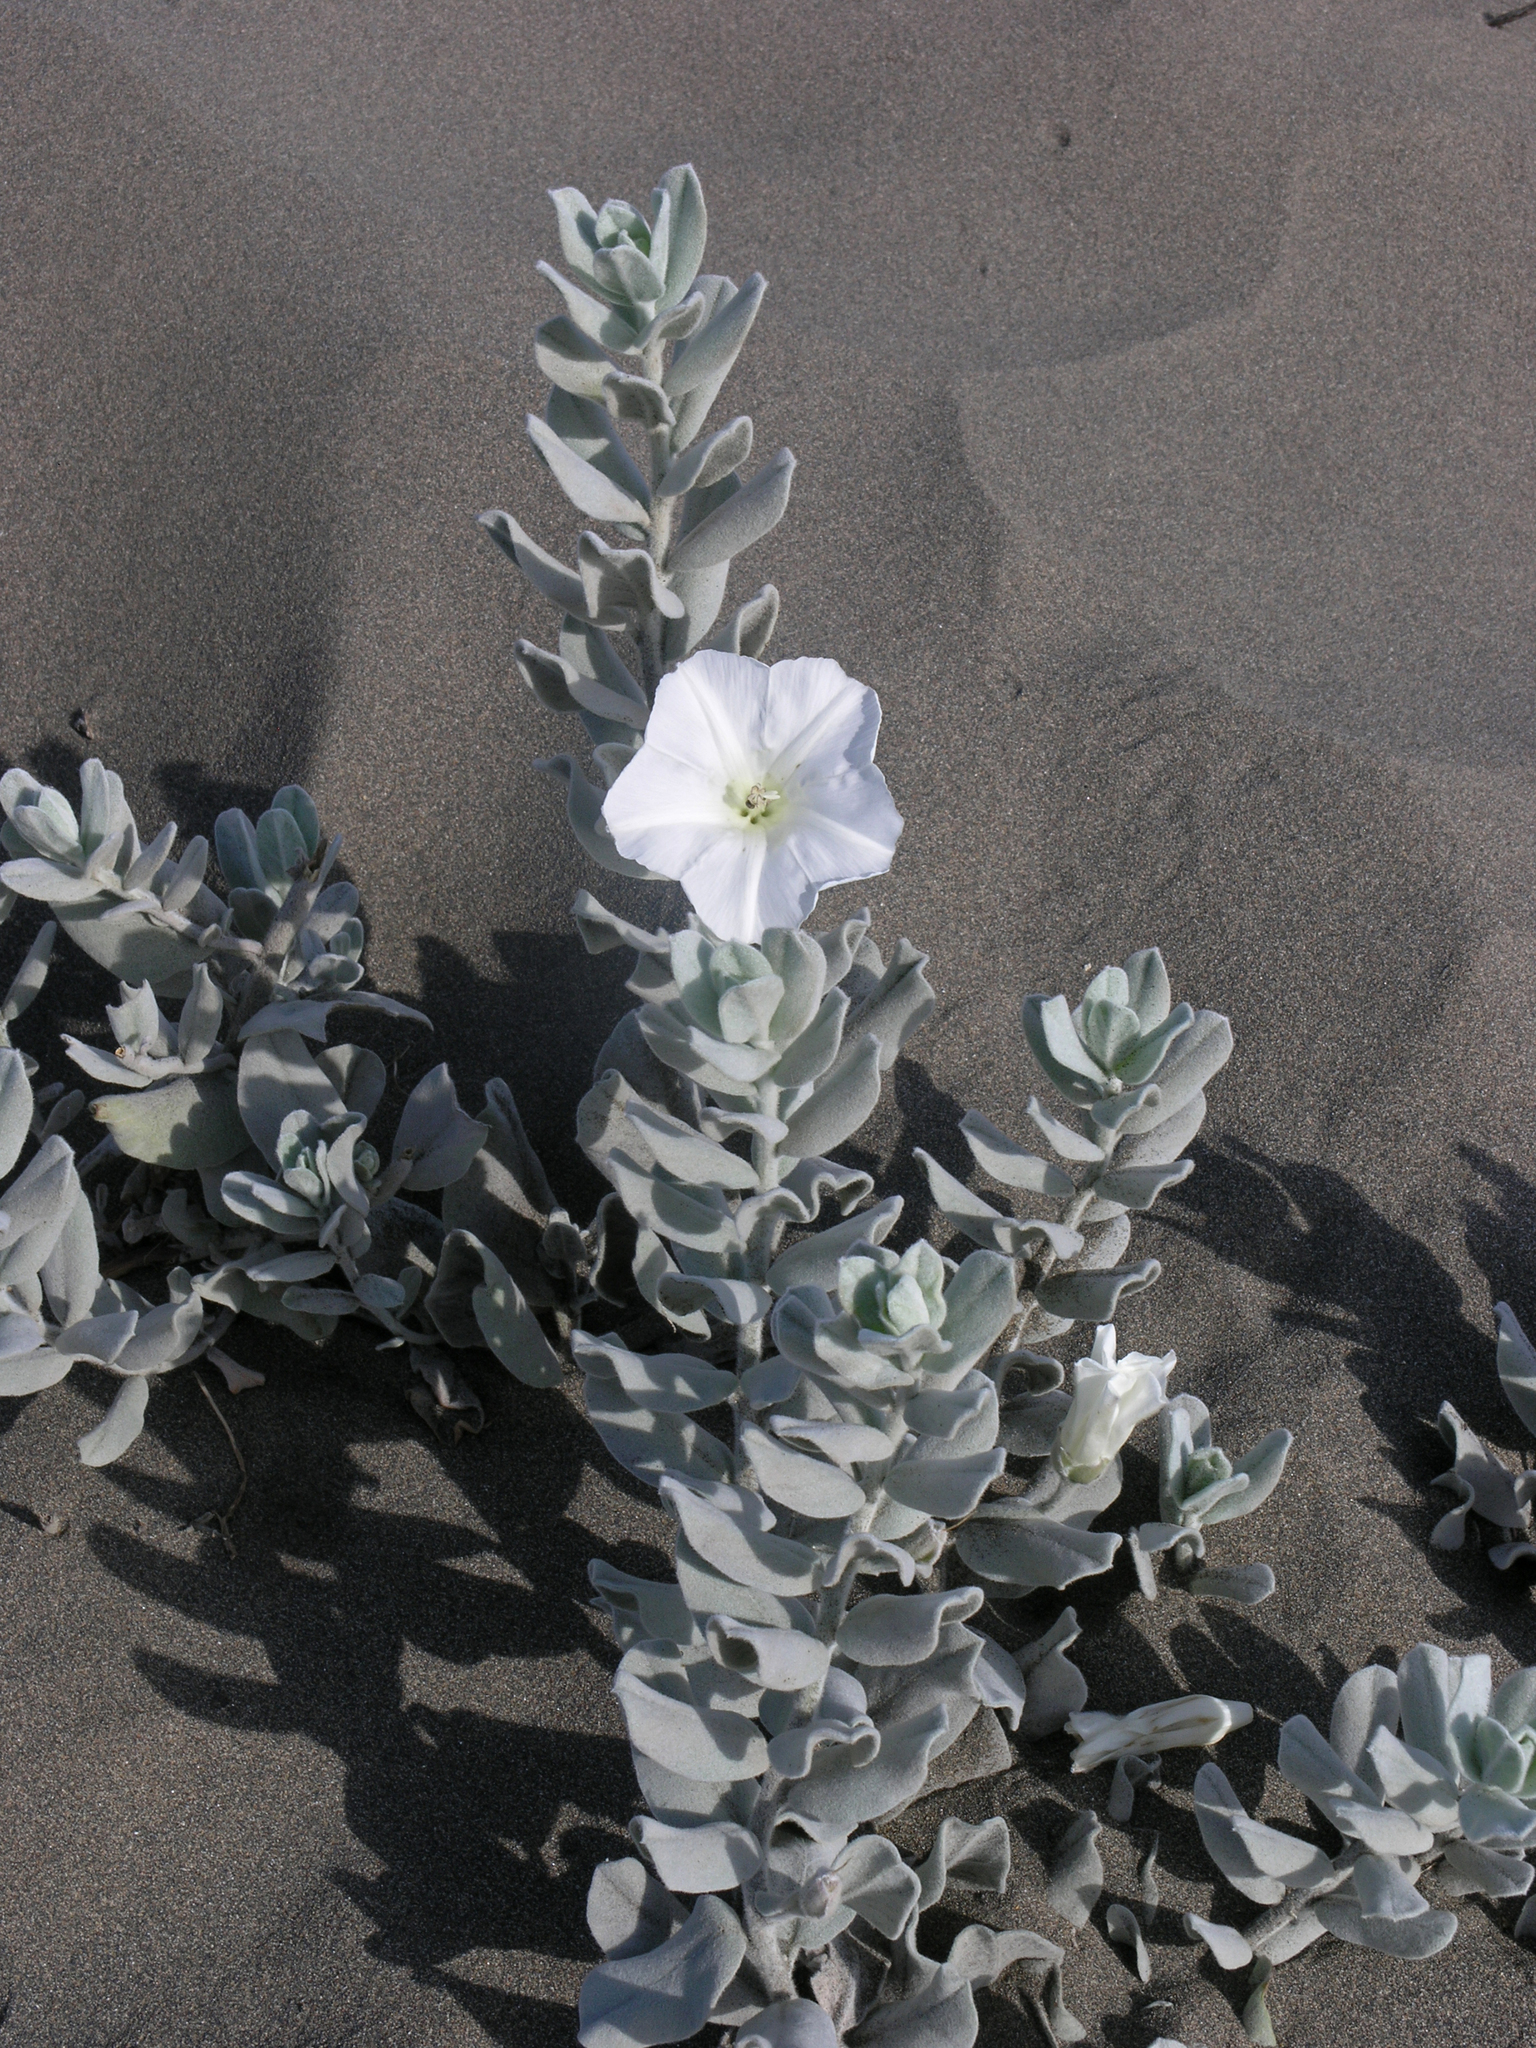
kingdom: Plantae
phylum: Tracheophyta
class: Magnoliopsida
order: Solanales
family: Convolvulaceae
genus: Convolvulus
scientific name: Convolvulus persicus
